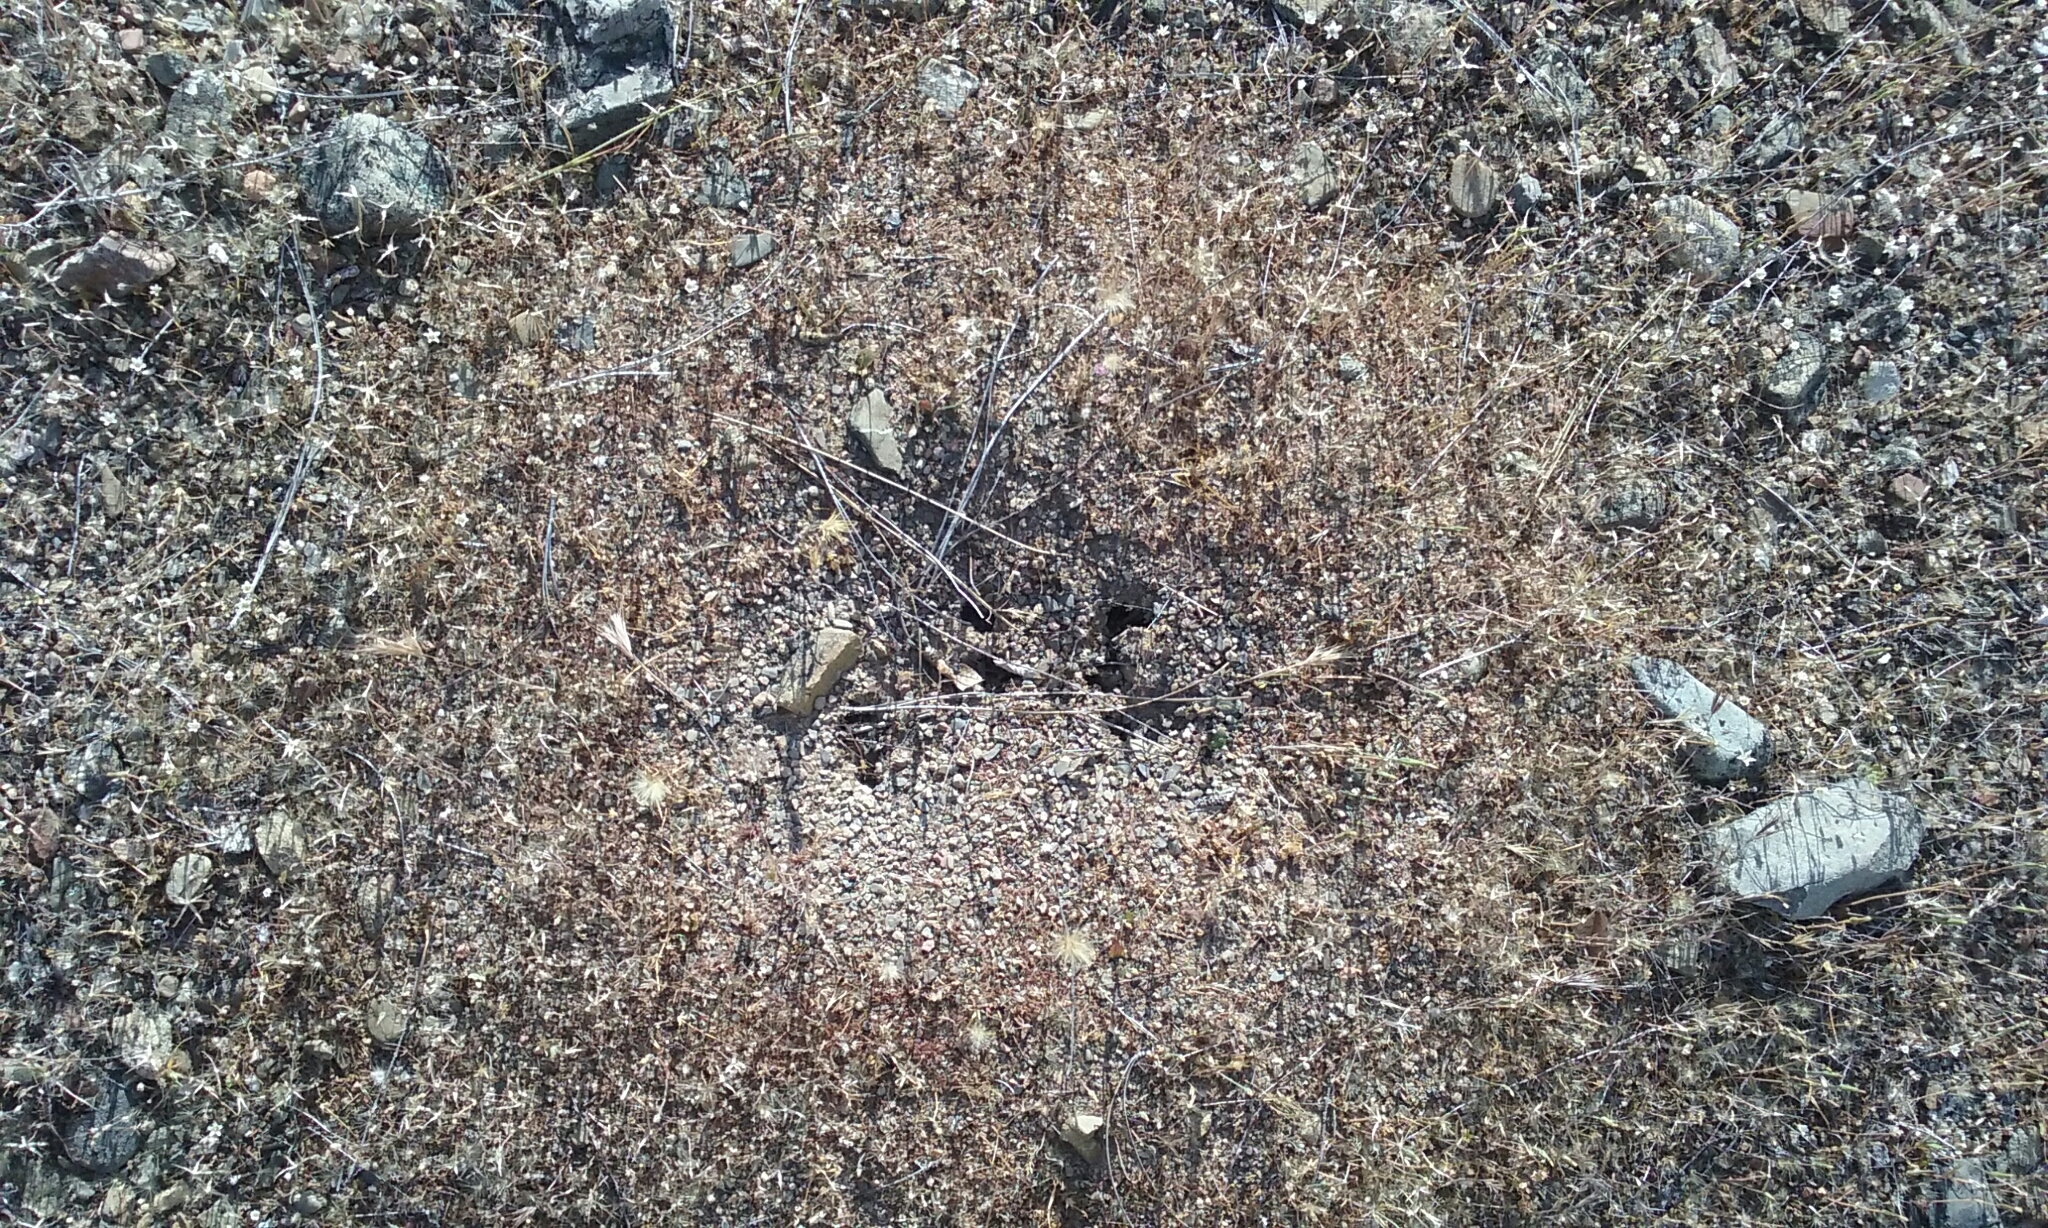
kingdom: Animalia
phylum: Arthropoda
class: Insecta
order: Hymenoptera
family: Formicidae
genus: Veromessor
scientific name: Veromessor andrei
